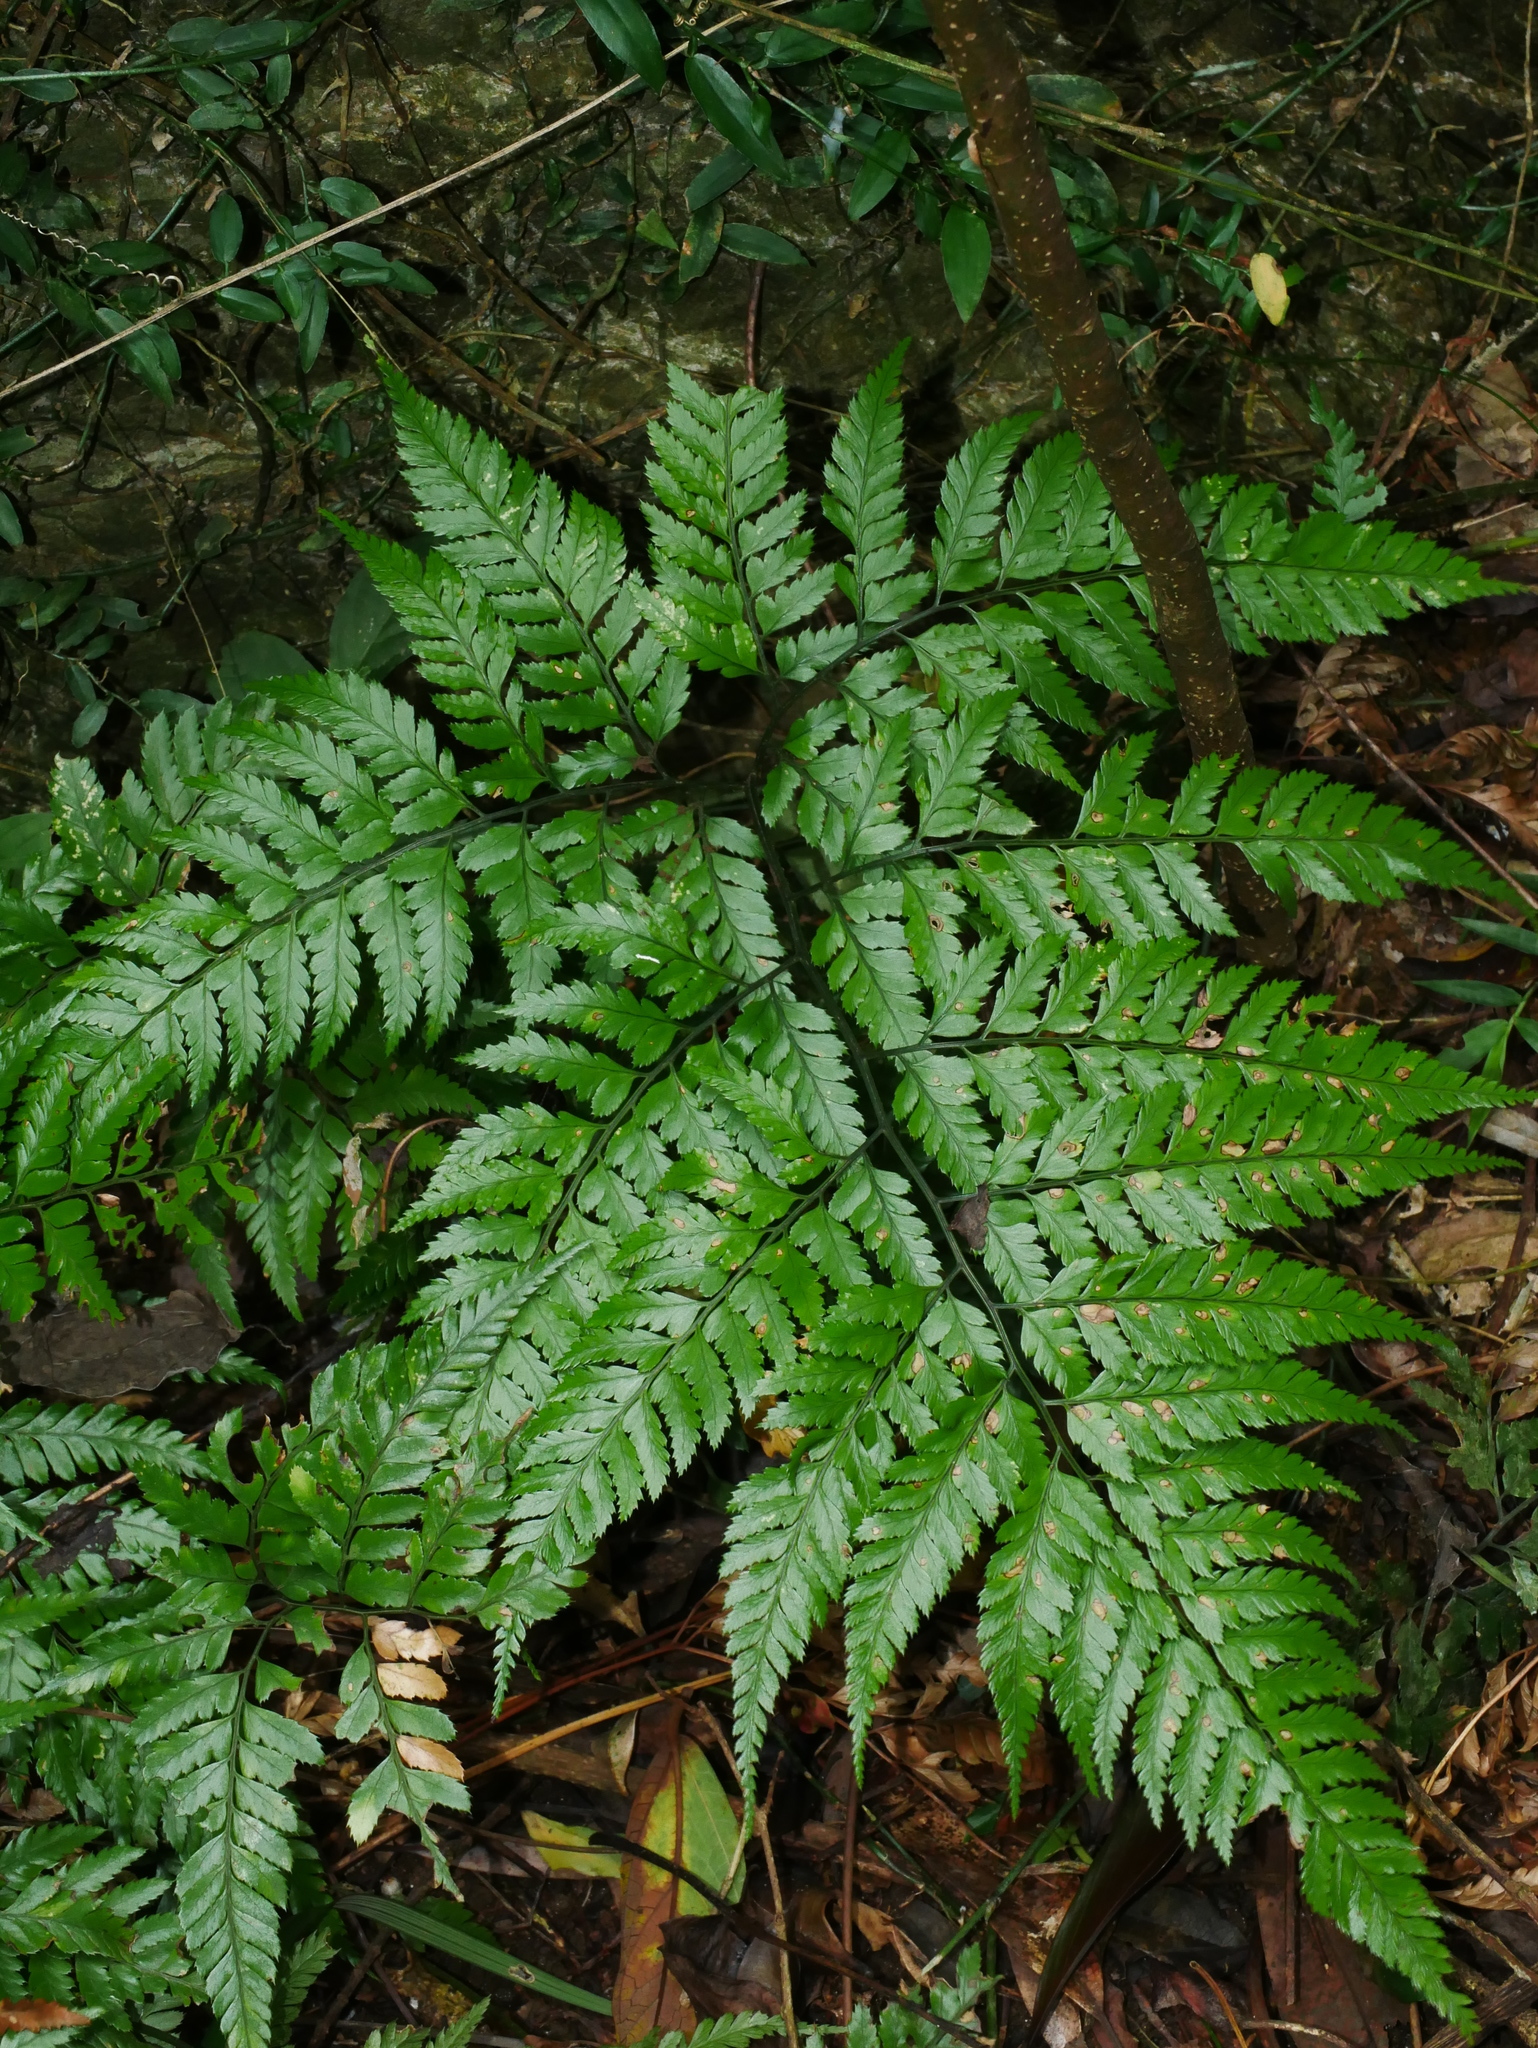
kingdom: Plantae
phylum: Tracheophyta
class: Polypodiopsida
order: Polypodiales
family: Dryopteridaceae
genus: Arachniodes
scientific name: Arachniodes pseudoaristata
